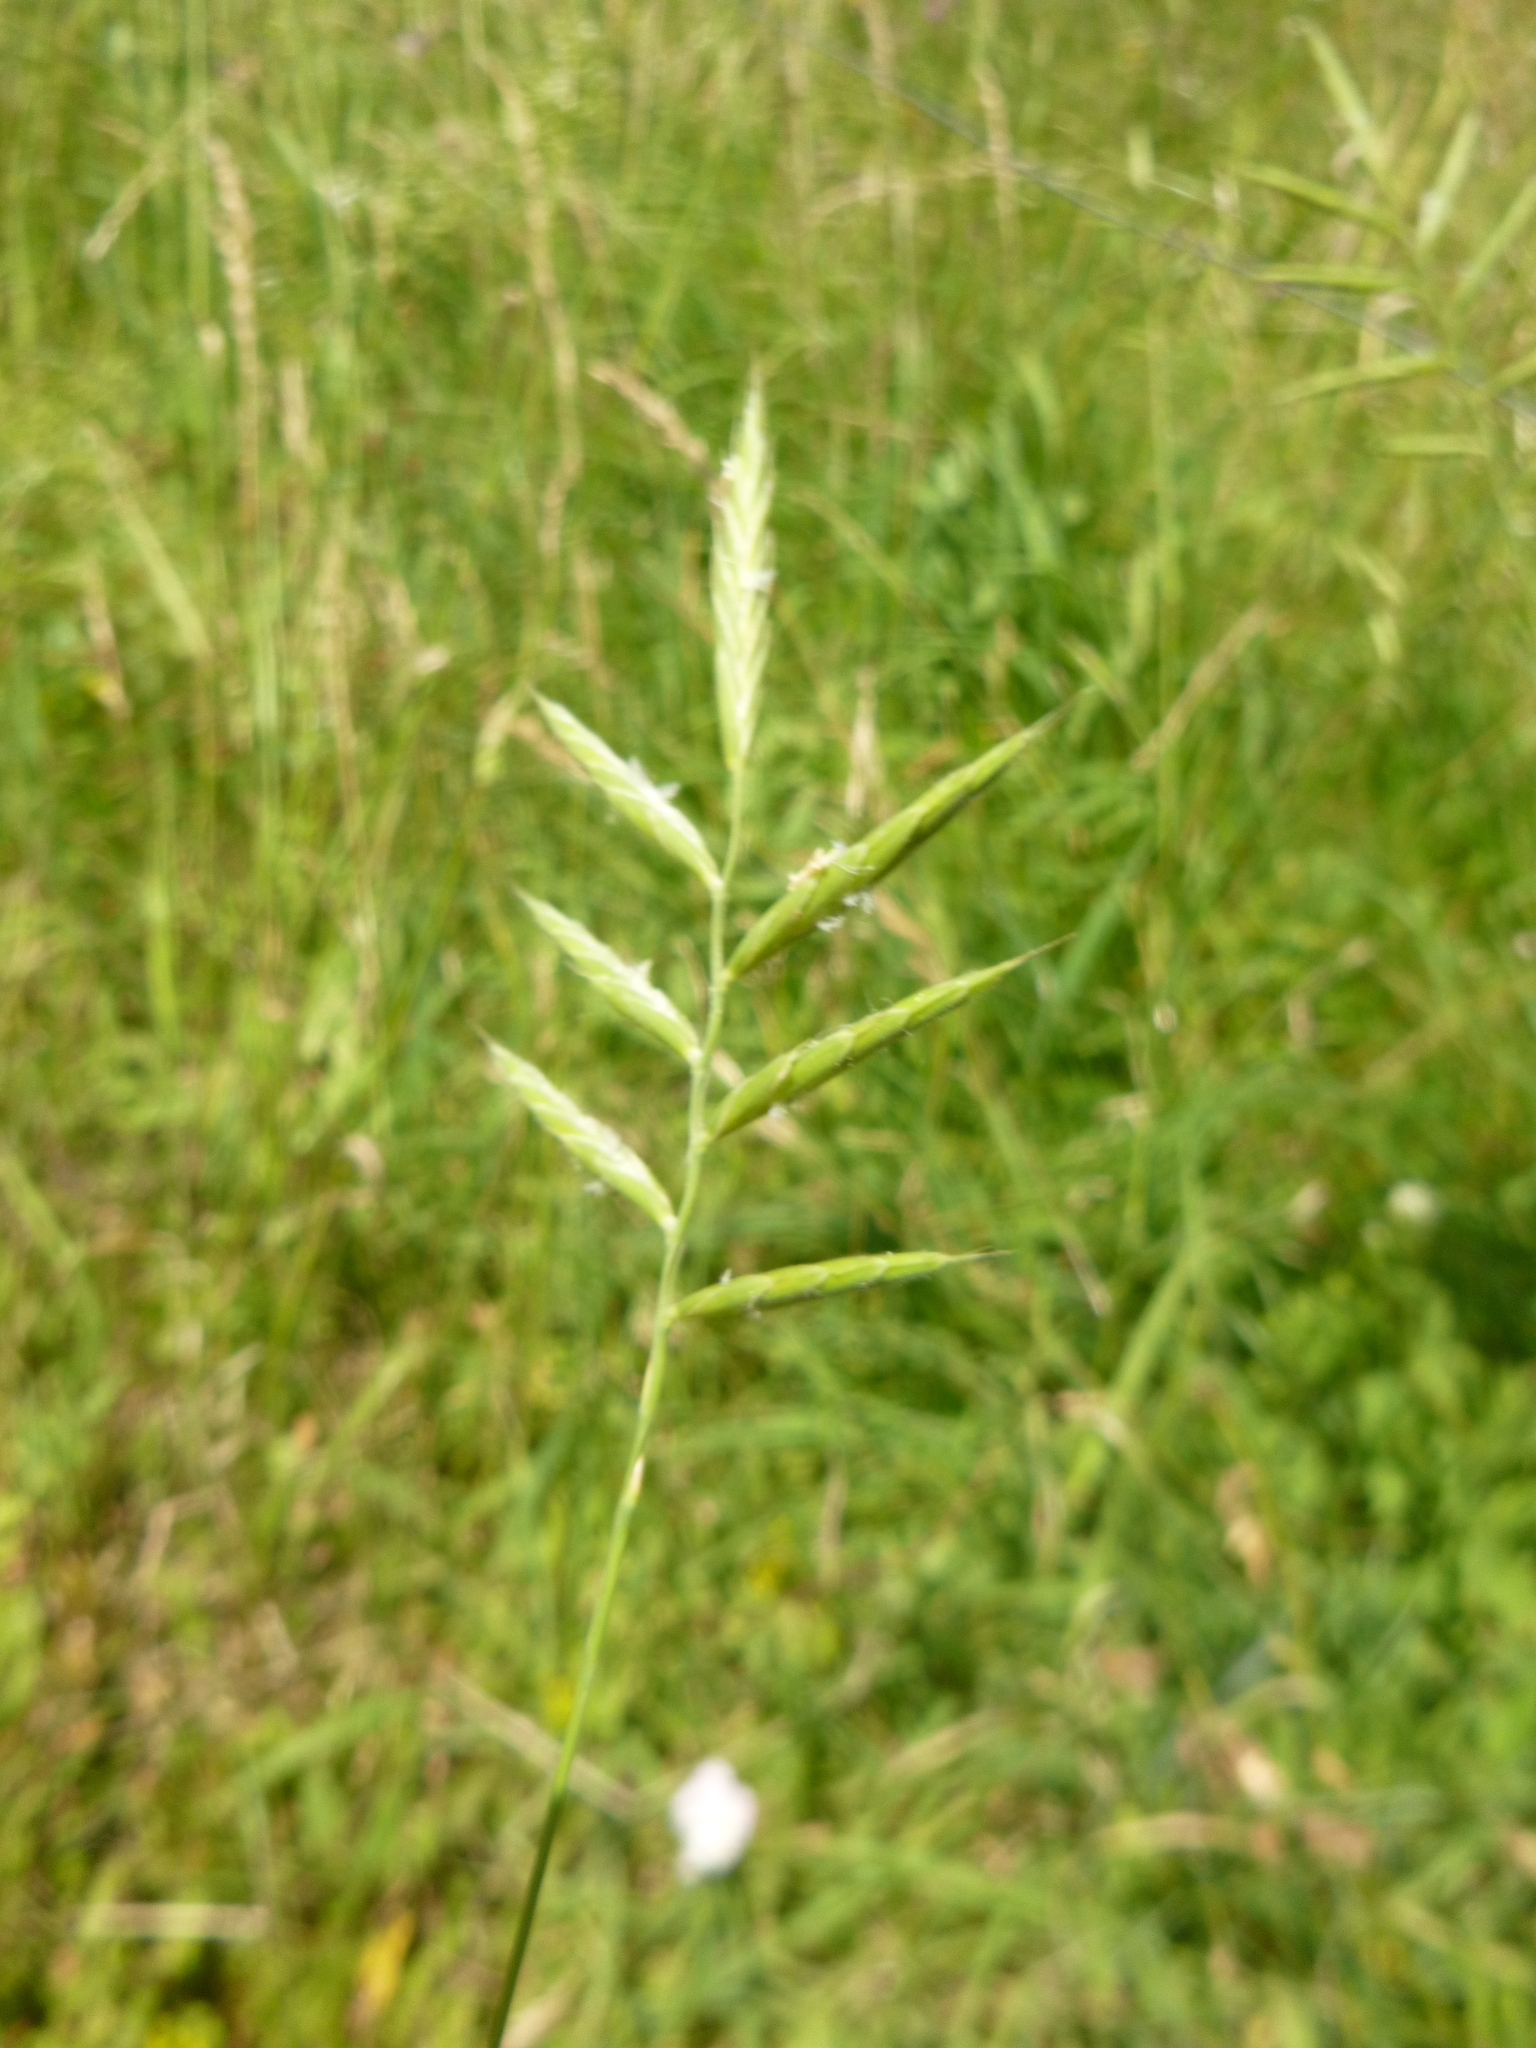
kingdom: Plantae
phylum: Tracheophyta
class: Liliopsida
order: Poales
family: Poaceae
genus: Brachypodium
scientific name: Brachypodium pinnatum
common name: Tor grass
